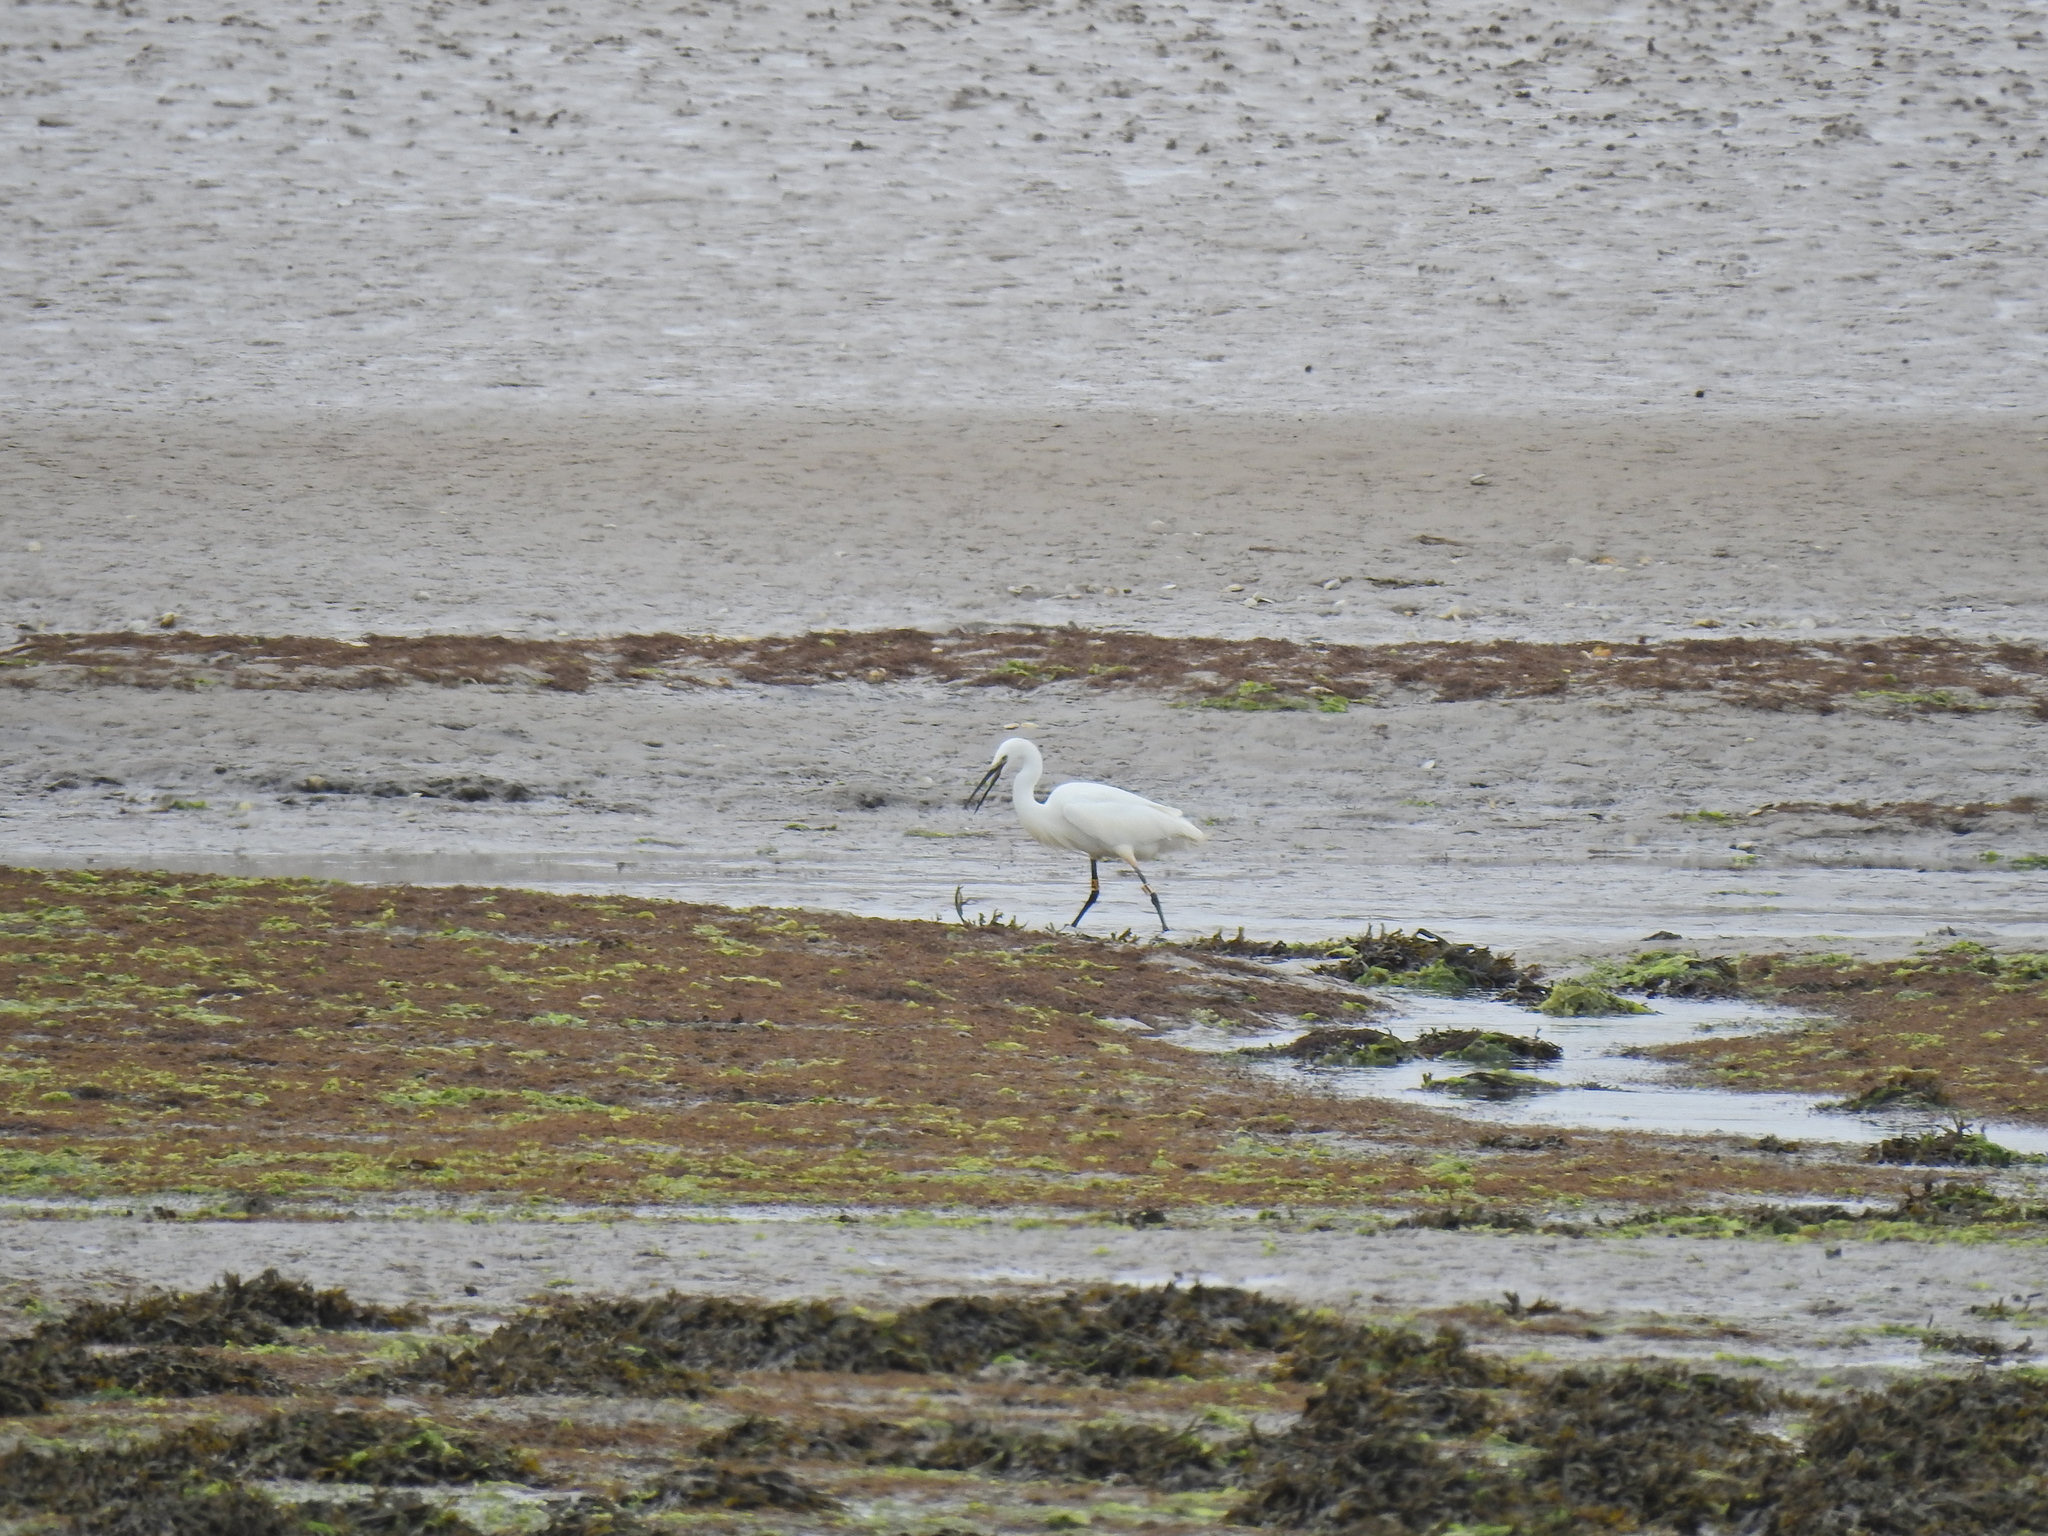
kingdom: Animalia
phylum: Chordata
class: Aves
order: Pelecaniformes
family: Ardeidae
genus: Egretta
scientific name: Egretta garzetta
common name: Little egret
